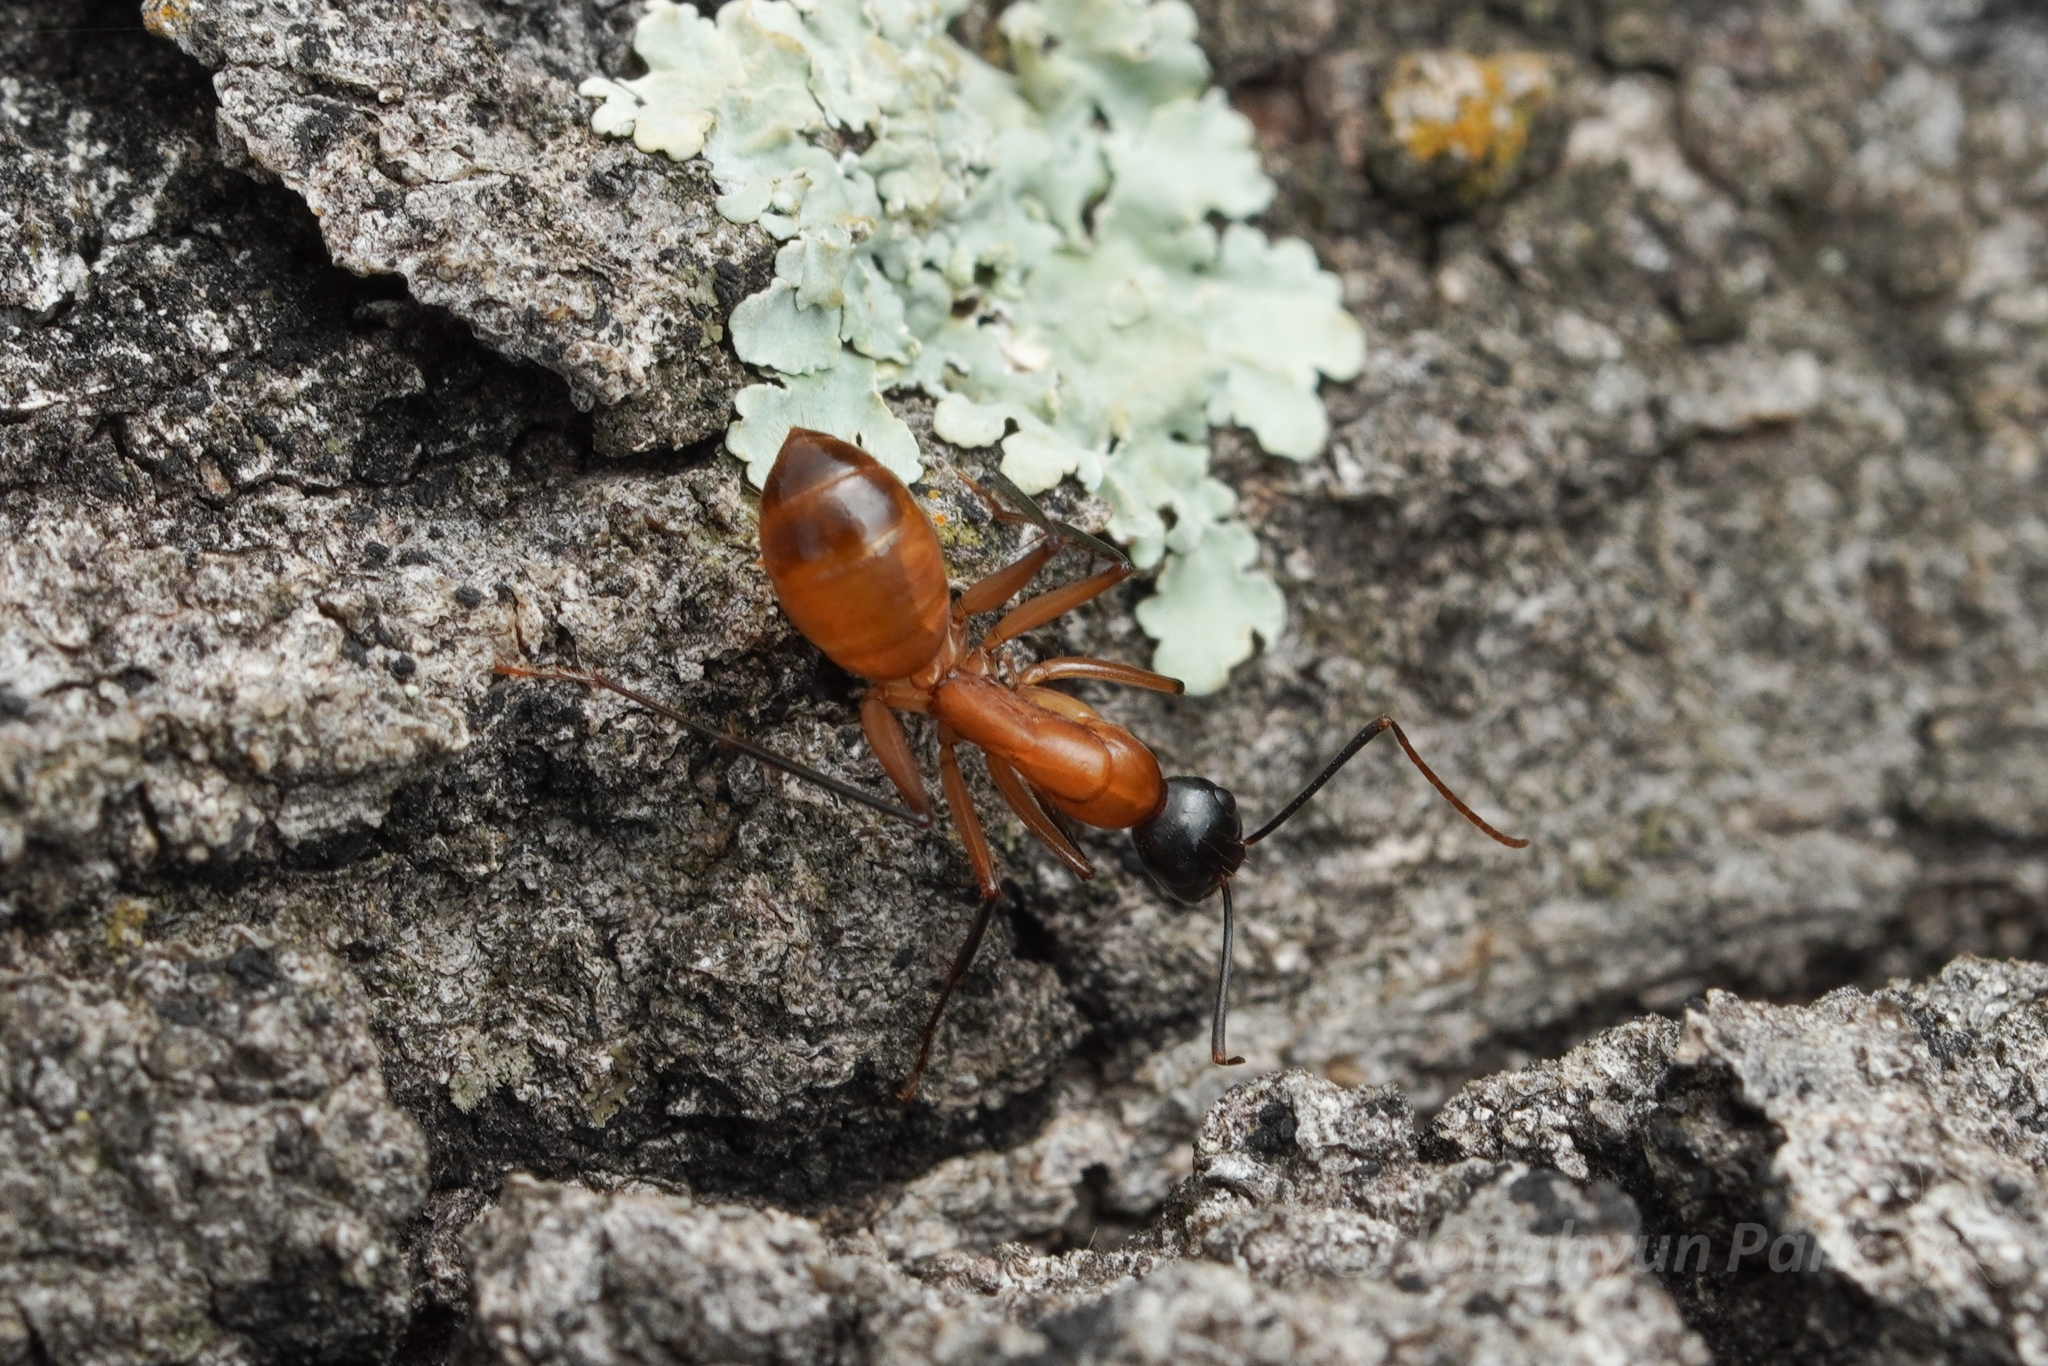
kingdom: Animalia
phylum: Arthropoda
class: Insecta
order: Hymenoptera
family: Formicidae
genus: Camponotus
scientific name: Camponotus ocreatus
